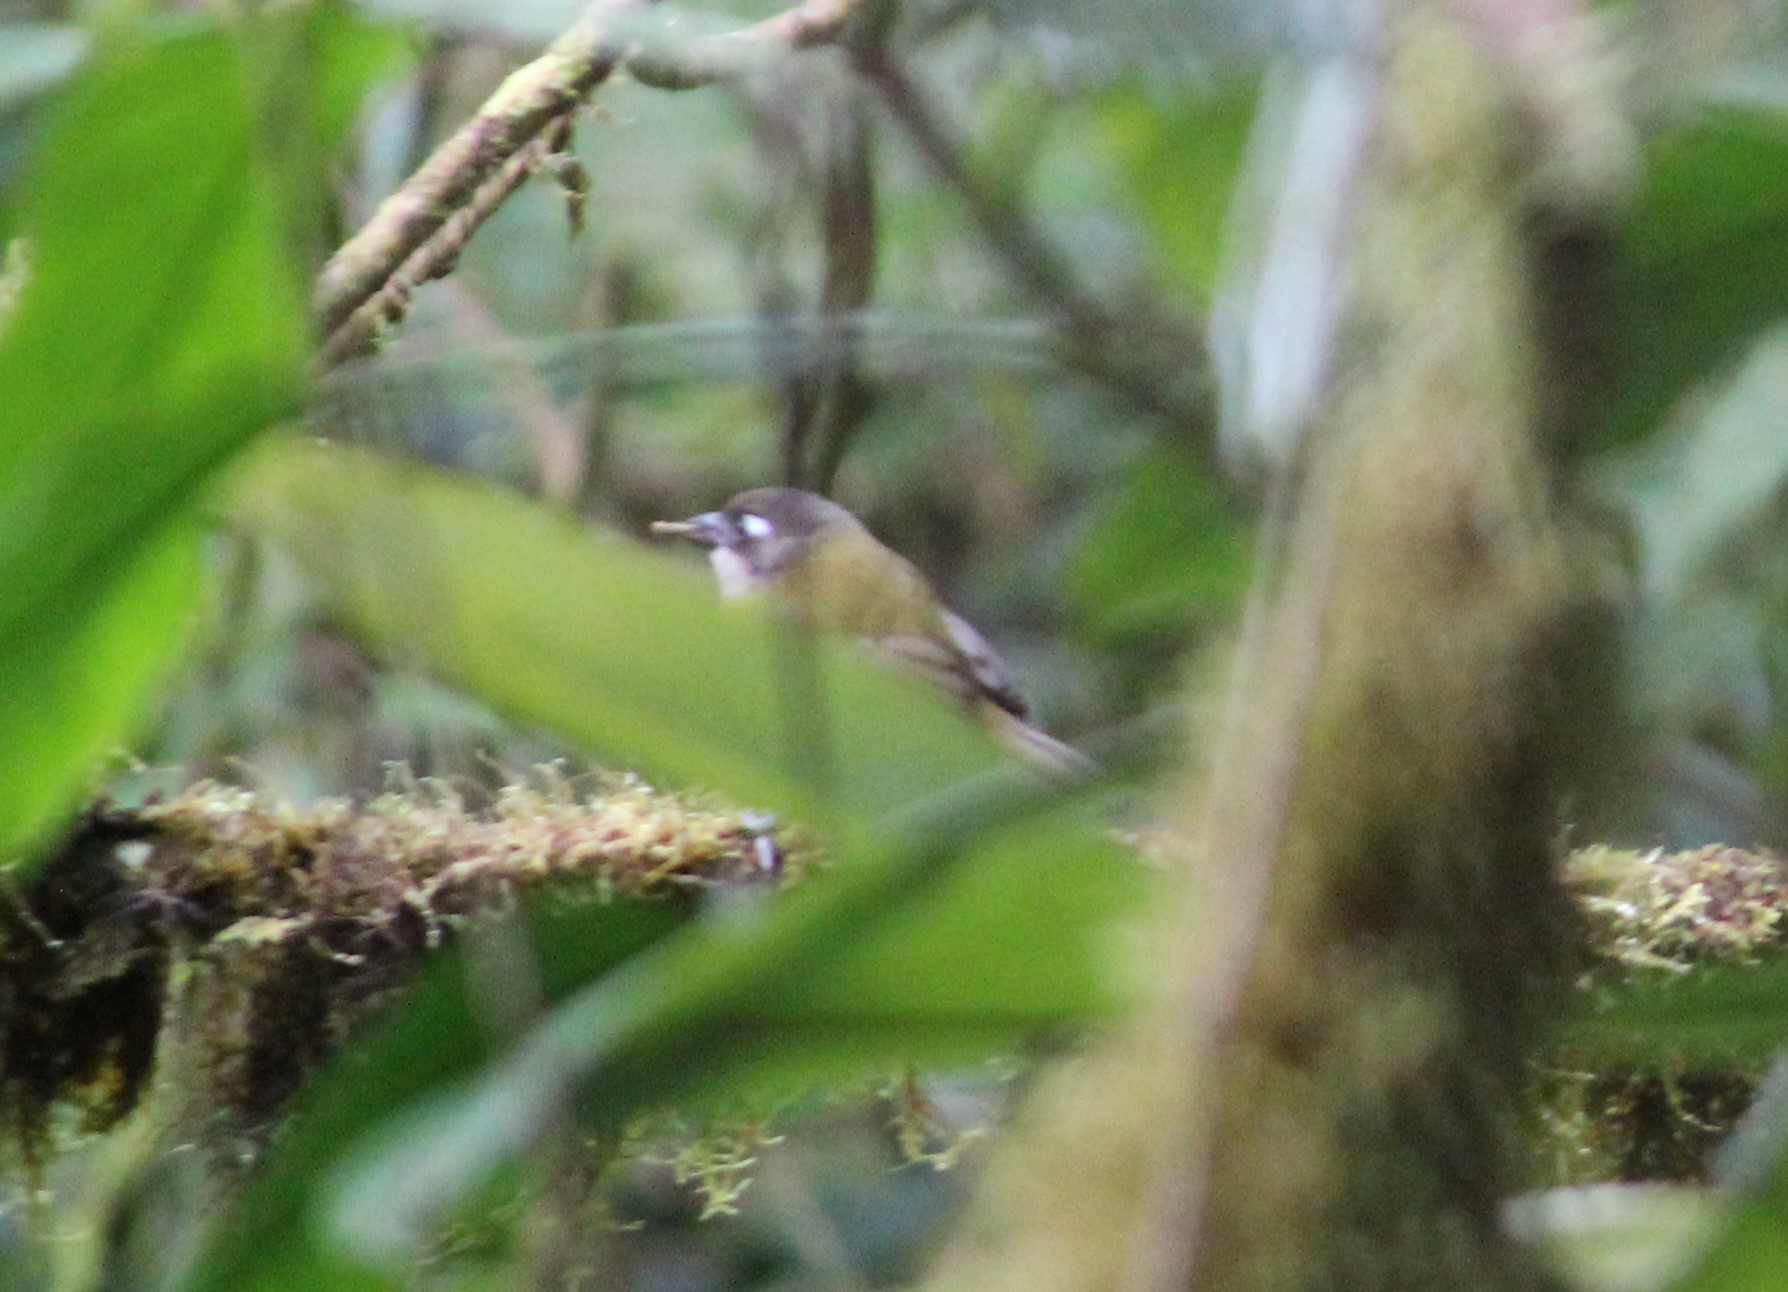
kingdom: Animalia
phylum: Chordata
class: Aves
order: Passeriformes
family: Passerellidae
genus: Chlorospingus
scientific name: Chlorospingus flavopectus
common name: Common chlorospingus
